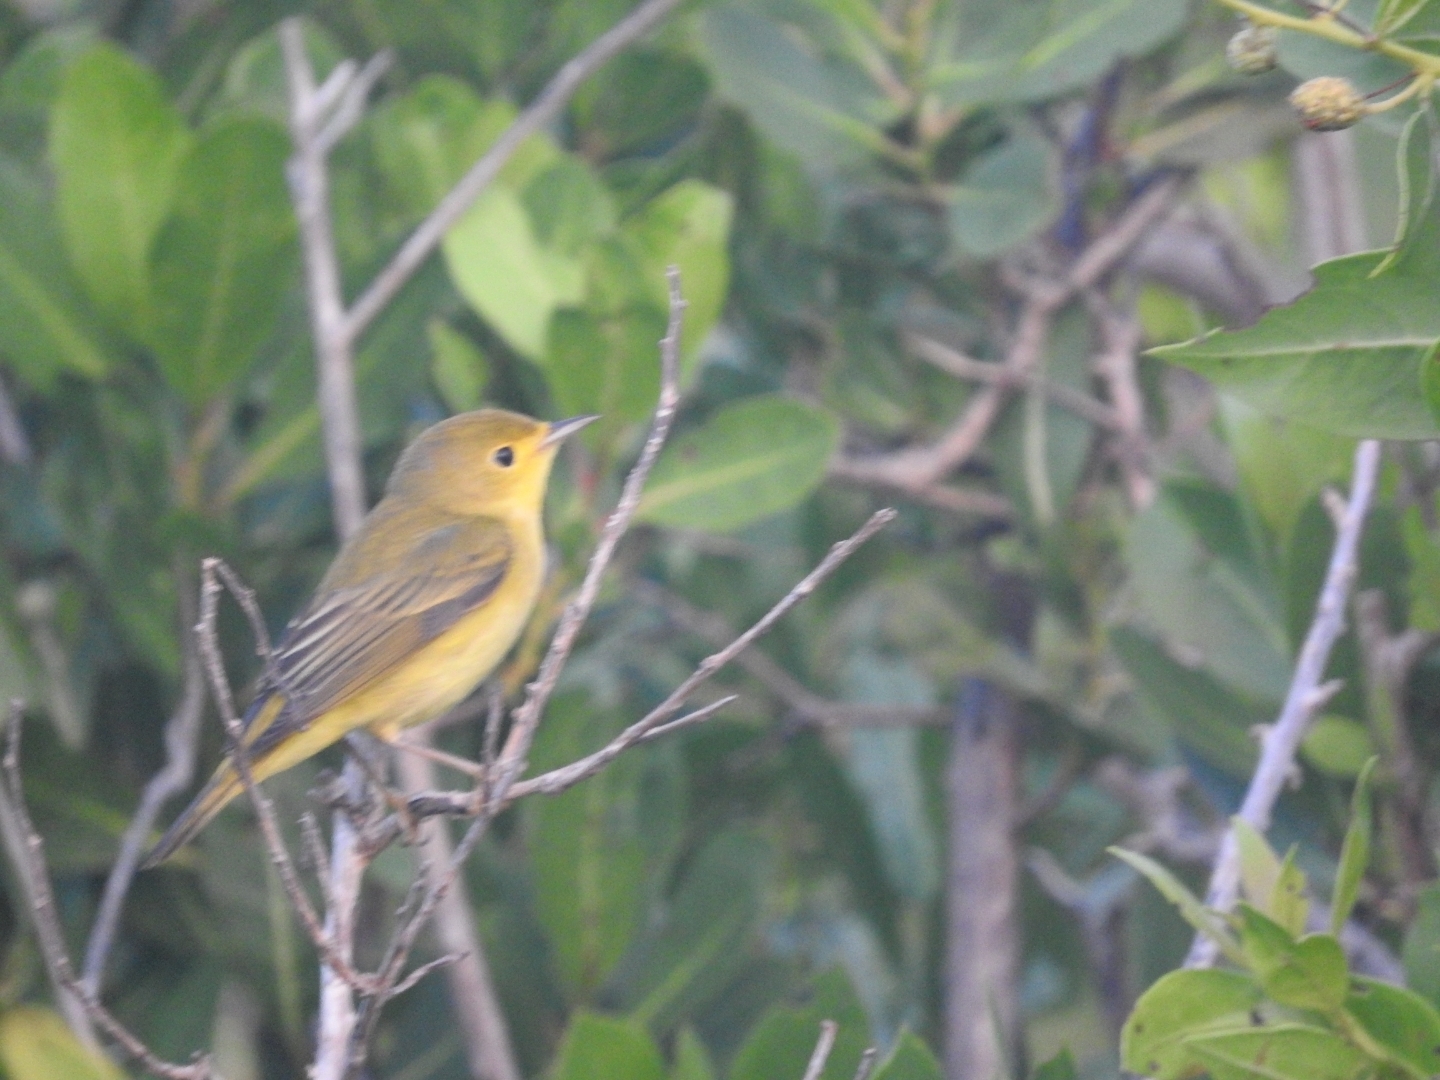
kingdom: Animalia
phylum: Chordata
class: Aves
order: Passeriformes
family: Parulidae
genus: Setophaga
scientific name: Setophaga petechia
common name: Yellow warbler
